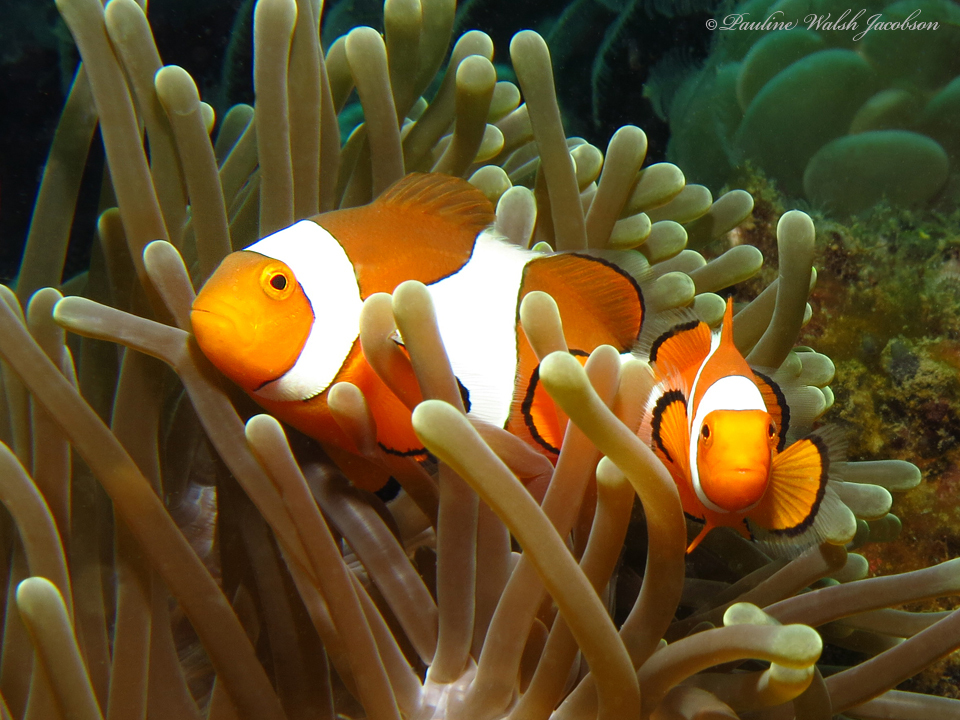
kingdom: Animalia
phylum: Chordata
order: Perciformes
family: Pomacentridae
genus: Amphiprion
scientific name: Amphiprion ocellaris
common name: Clown anemonefish
